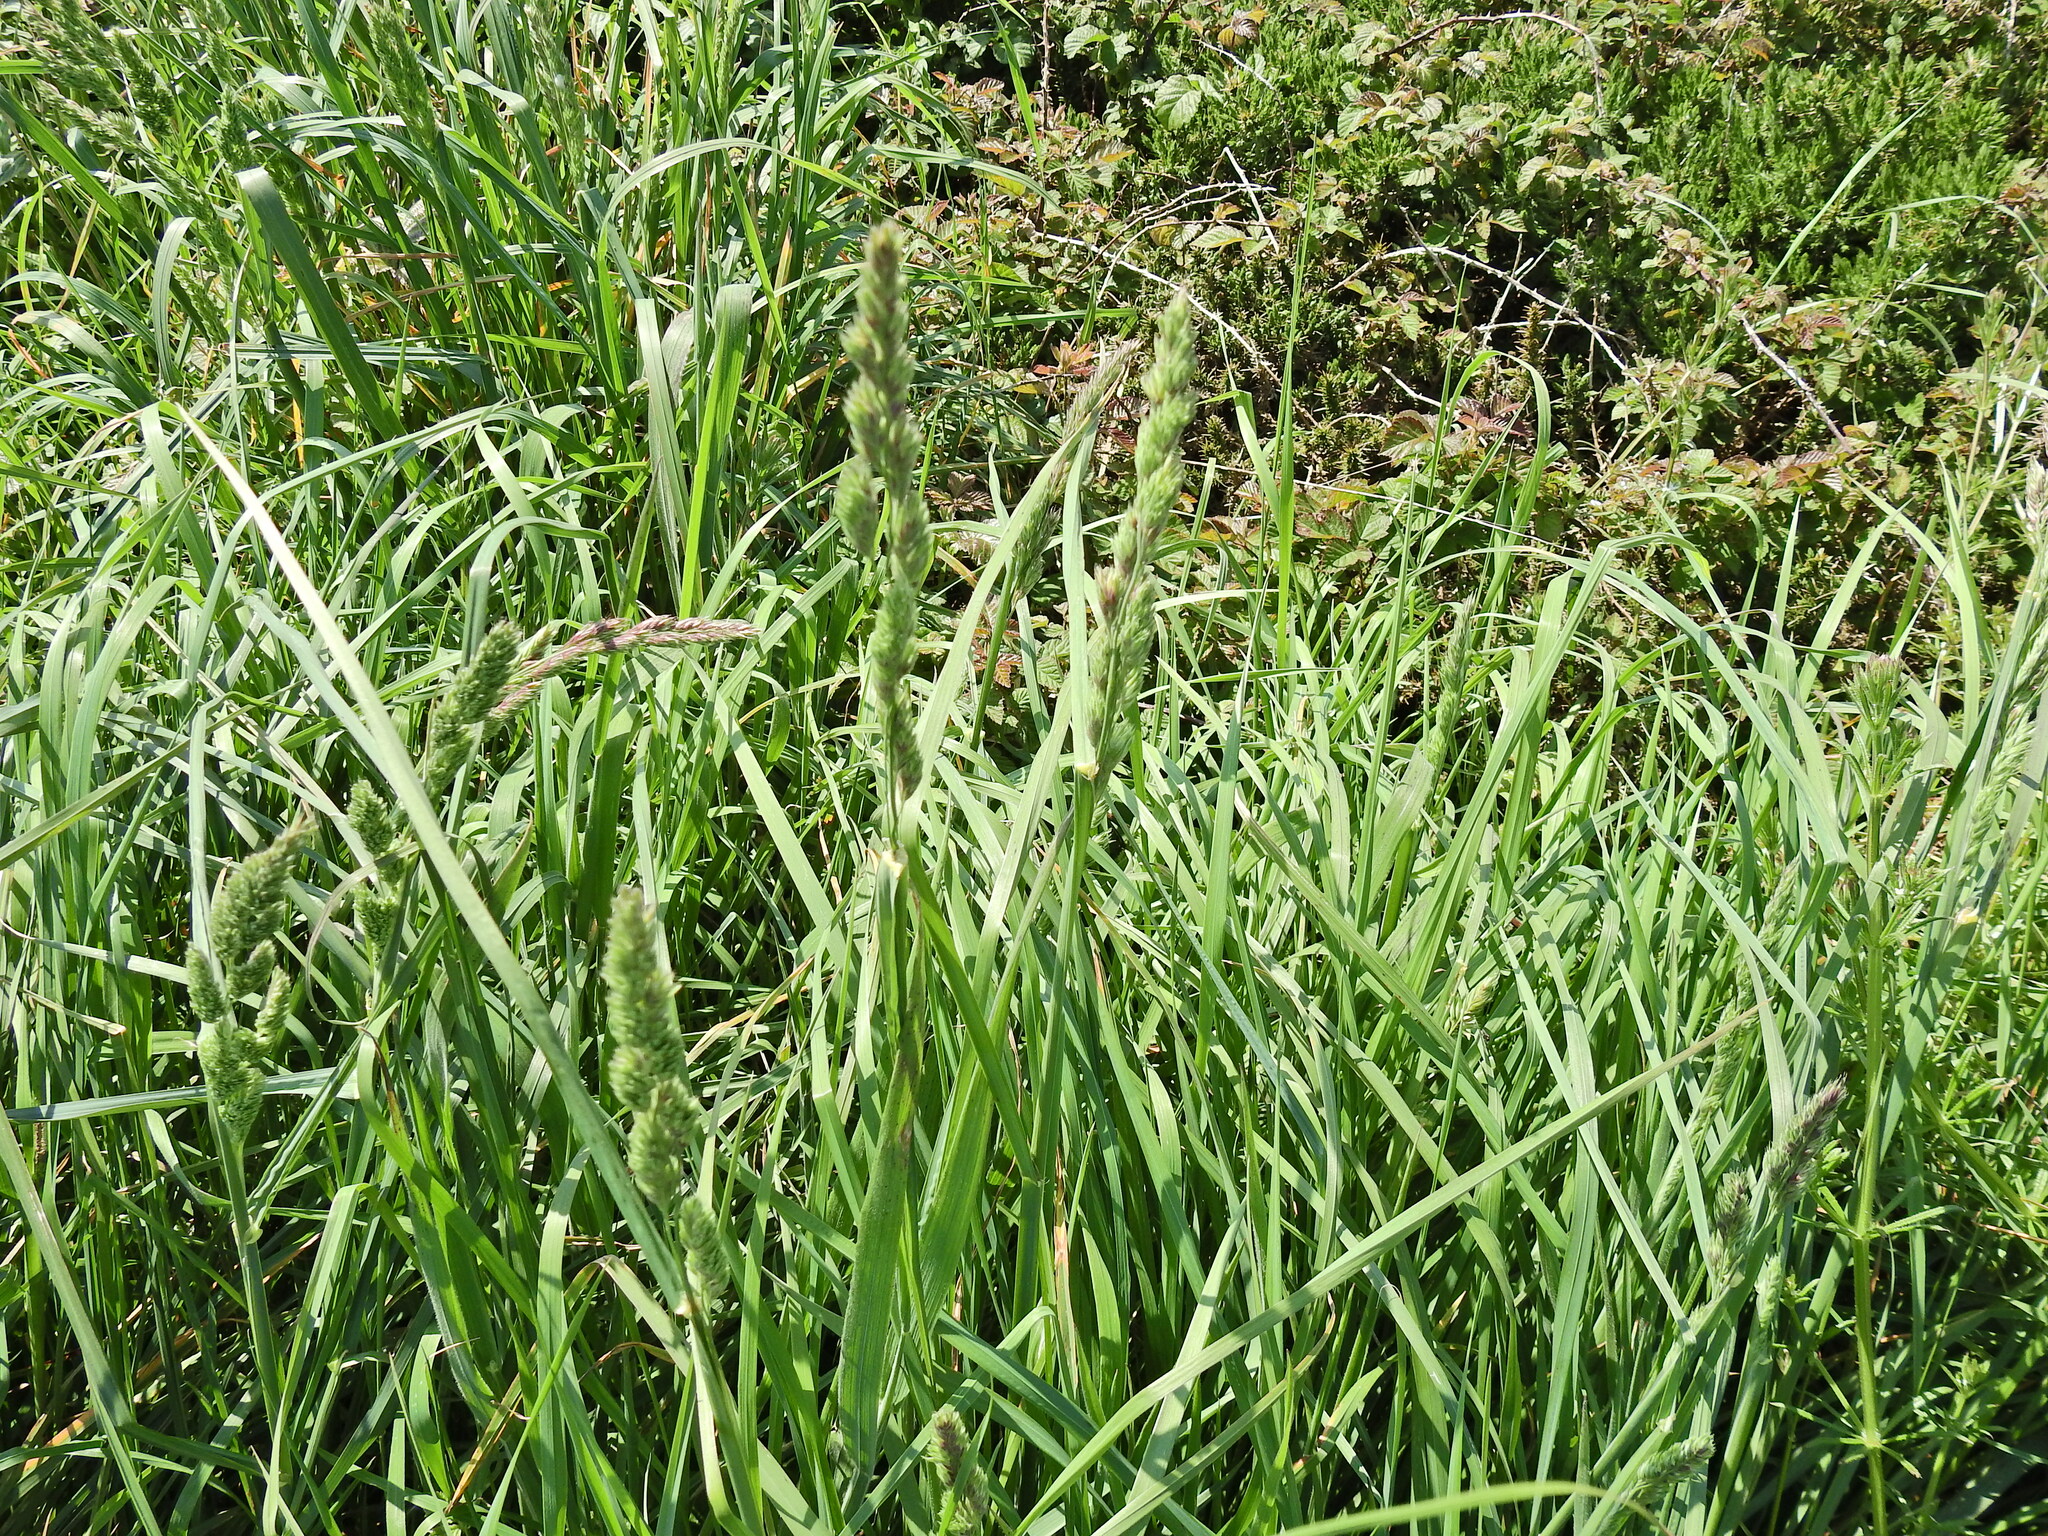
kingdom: Plantae
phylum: Tracheophyta
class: Liliopsida
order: Poales
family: Poaceae
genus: Dactylis
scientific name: Dactylis glomerata
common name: Orchardgrass
